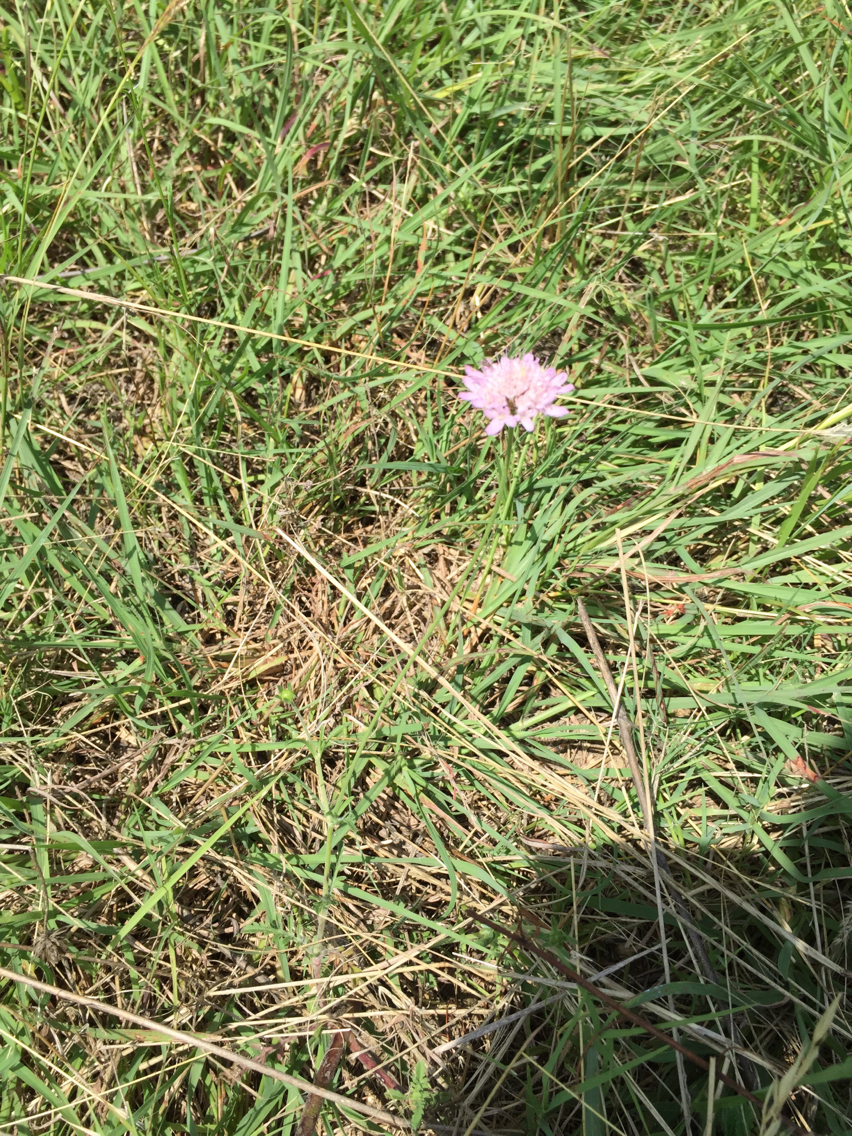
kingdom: Plantae
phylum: Tracheophyta
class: Magnoliopsida
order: Dipsacales
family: Caprifoliaceae
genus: Sixalix
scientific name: Sixalix atropurpurea
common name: Sweet scabious
